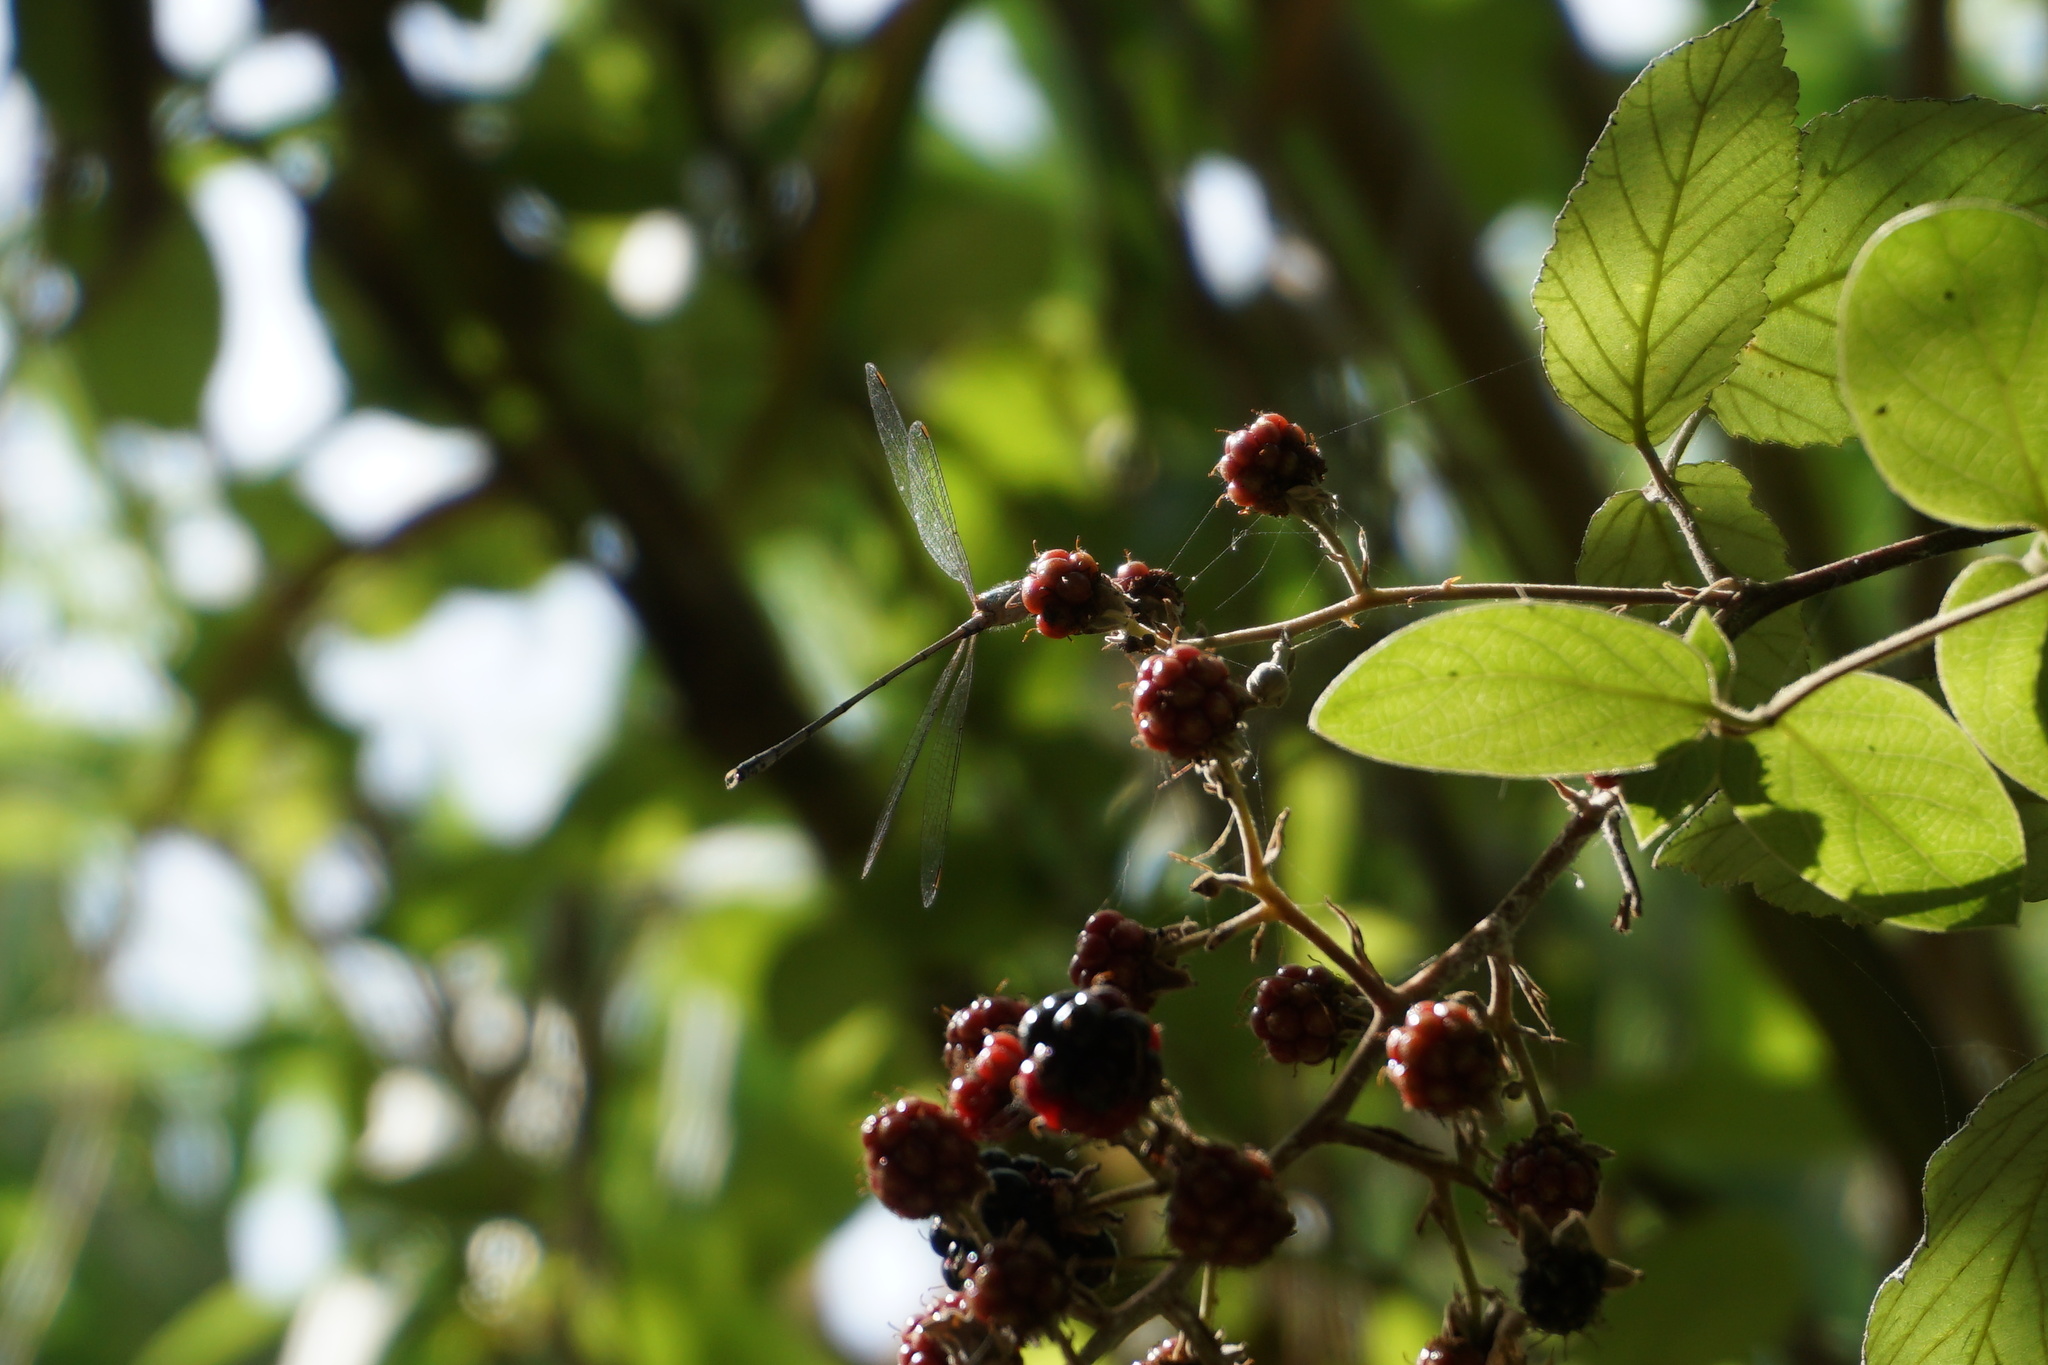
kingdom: Animalia
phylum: Arthropoda
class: Insecta
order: Odonata
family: Lestidae
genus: Chalcolestes
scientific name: Chalcolestes parvidens
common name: Eastern willow spreadwing
